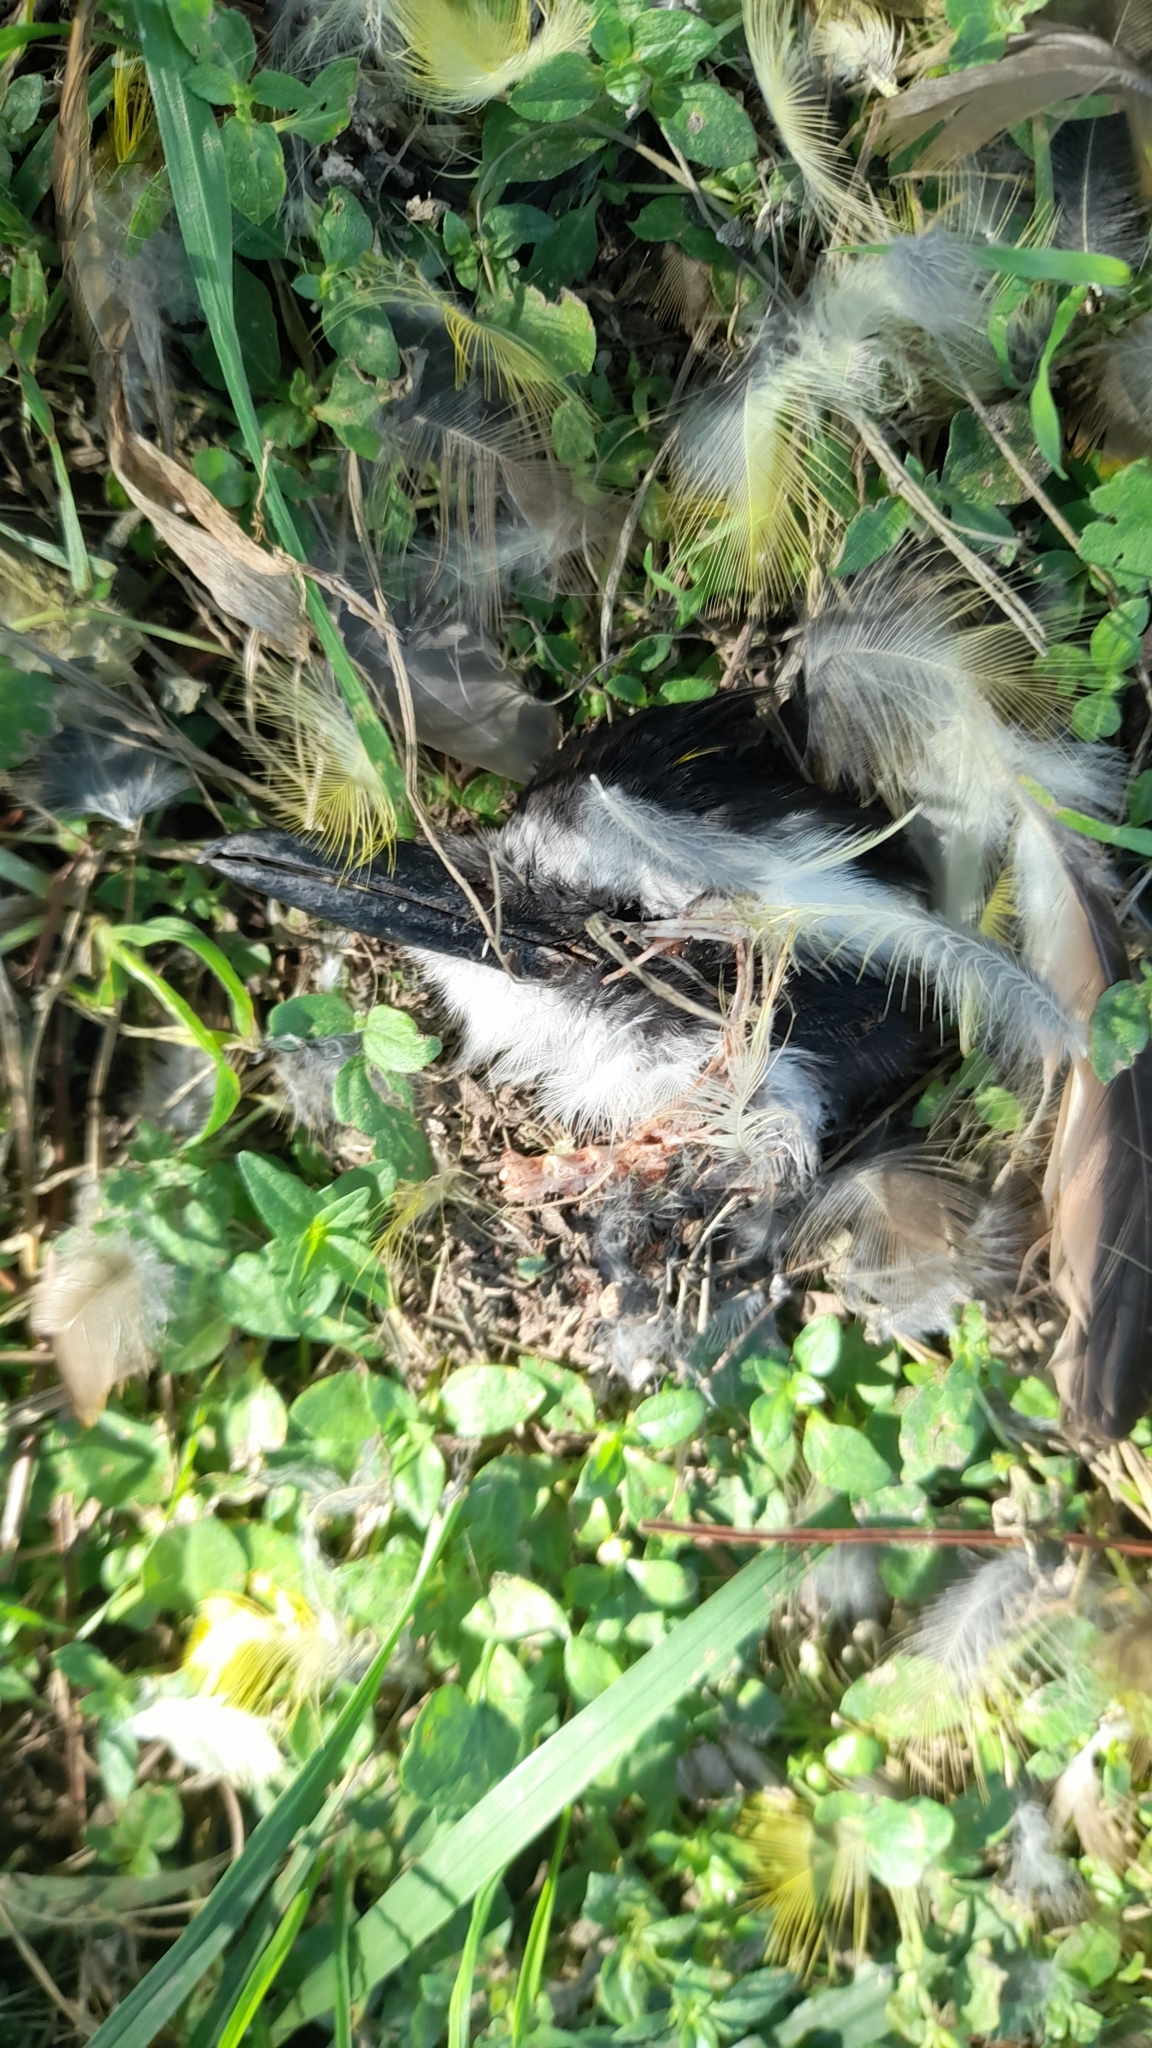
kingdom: Animalia
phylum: Chordata
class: Aves
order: Passeriformes
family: Tyrannidae
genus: Pitangus
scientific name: Pitangus sulphuratus
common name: Great kiskadee
